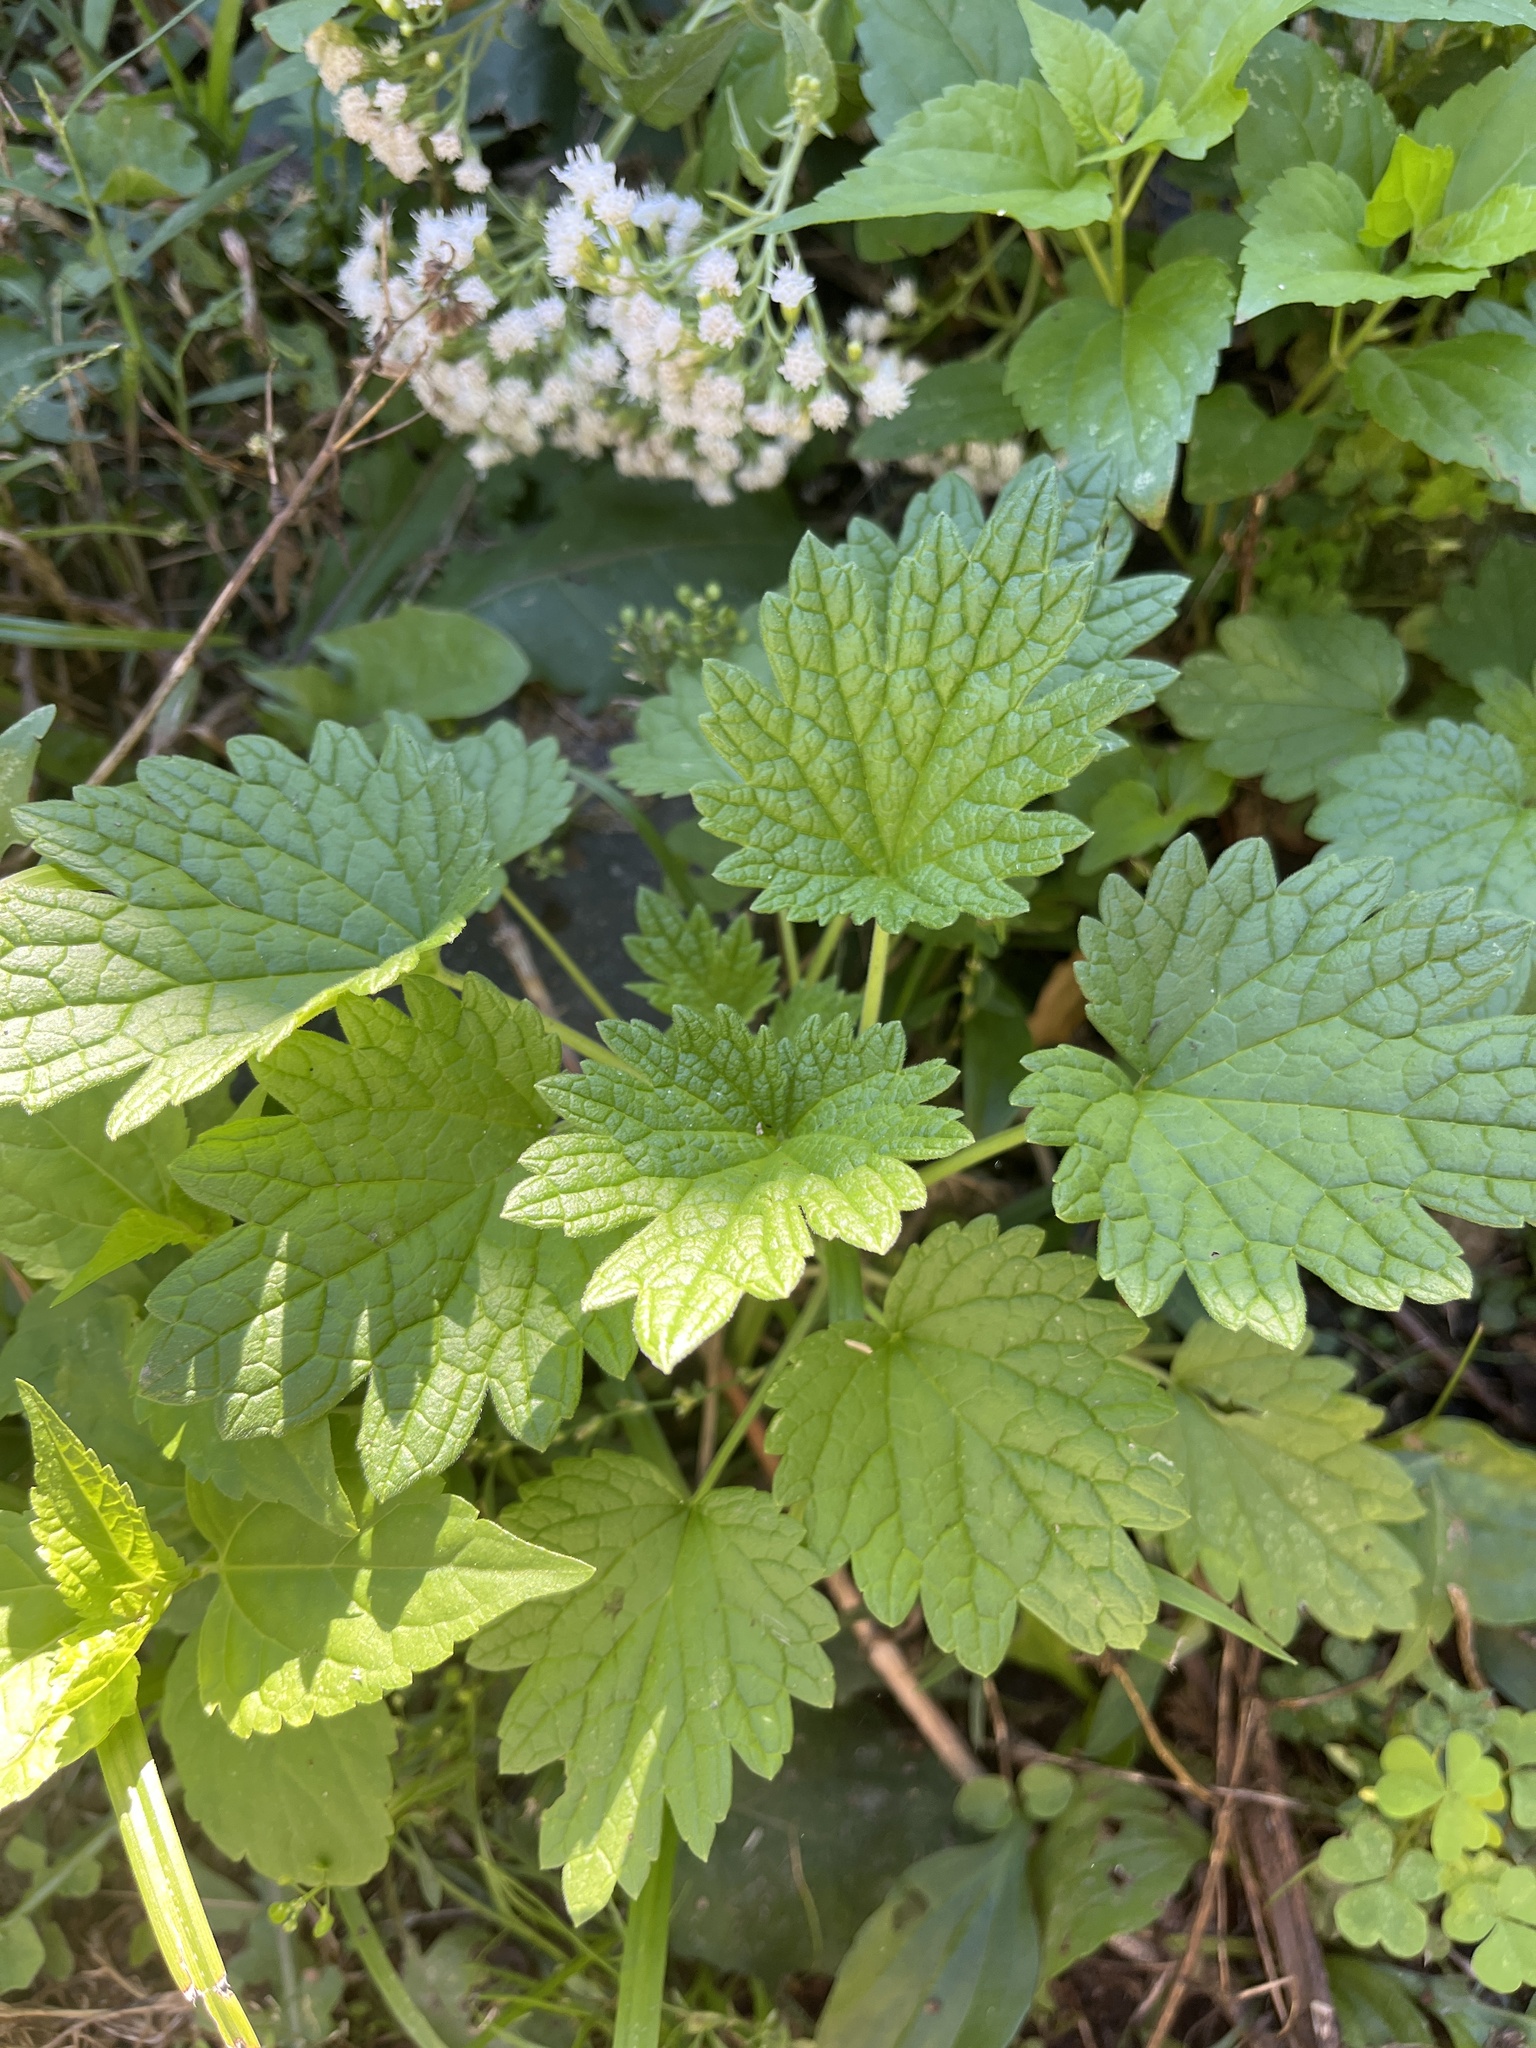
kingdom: Plantae
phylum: Tracheophyta
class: Magnoliopsida
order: Lamiales
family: Lamiaceae
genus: Leonurus
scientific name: Leonurus cardiaca
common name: Motherwort
